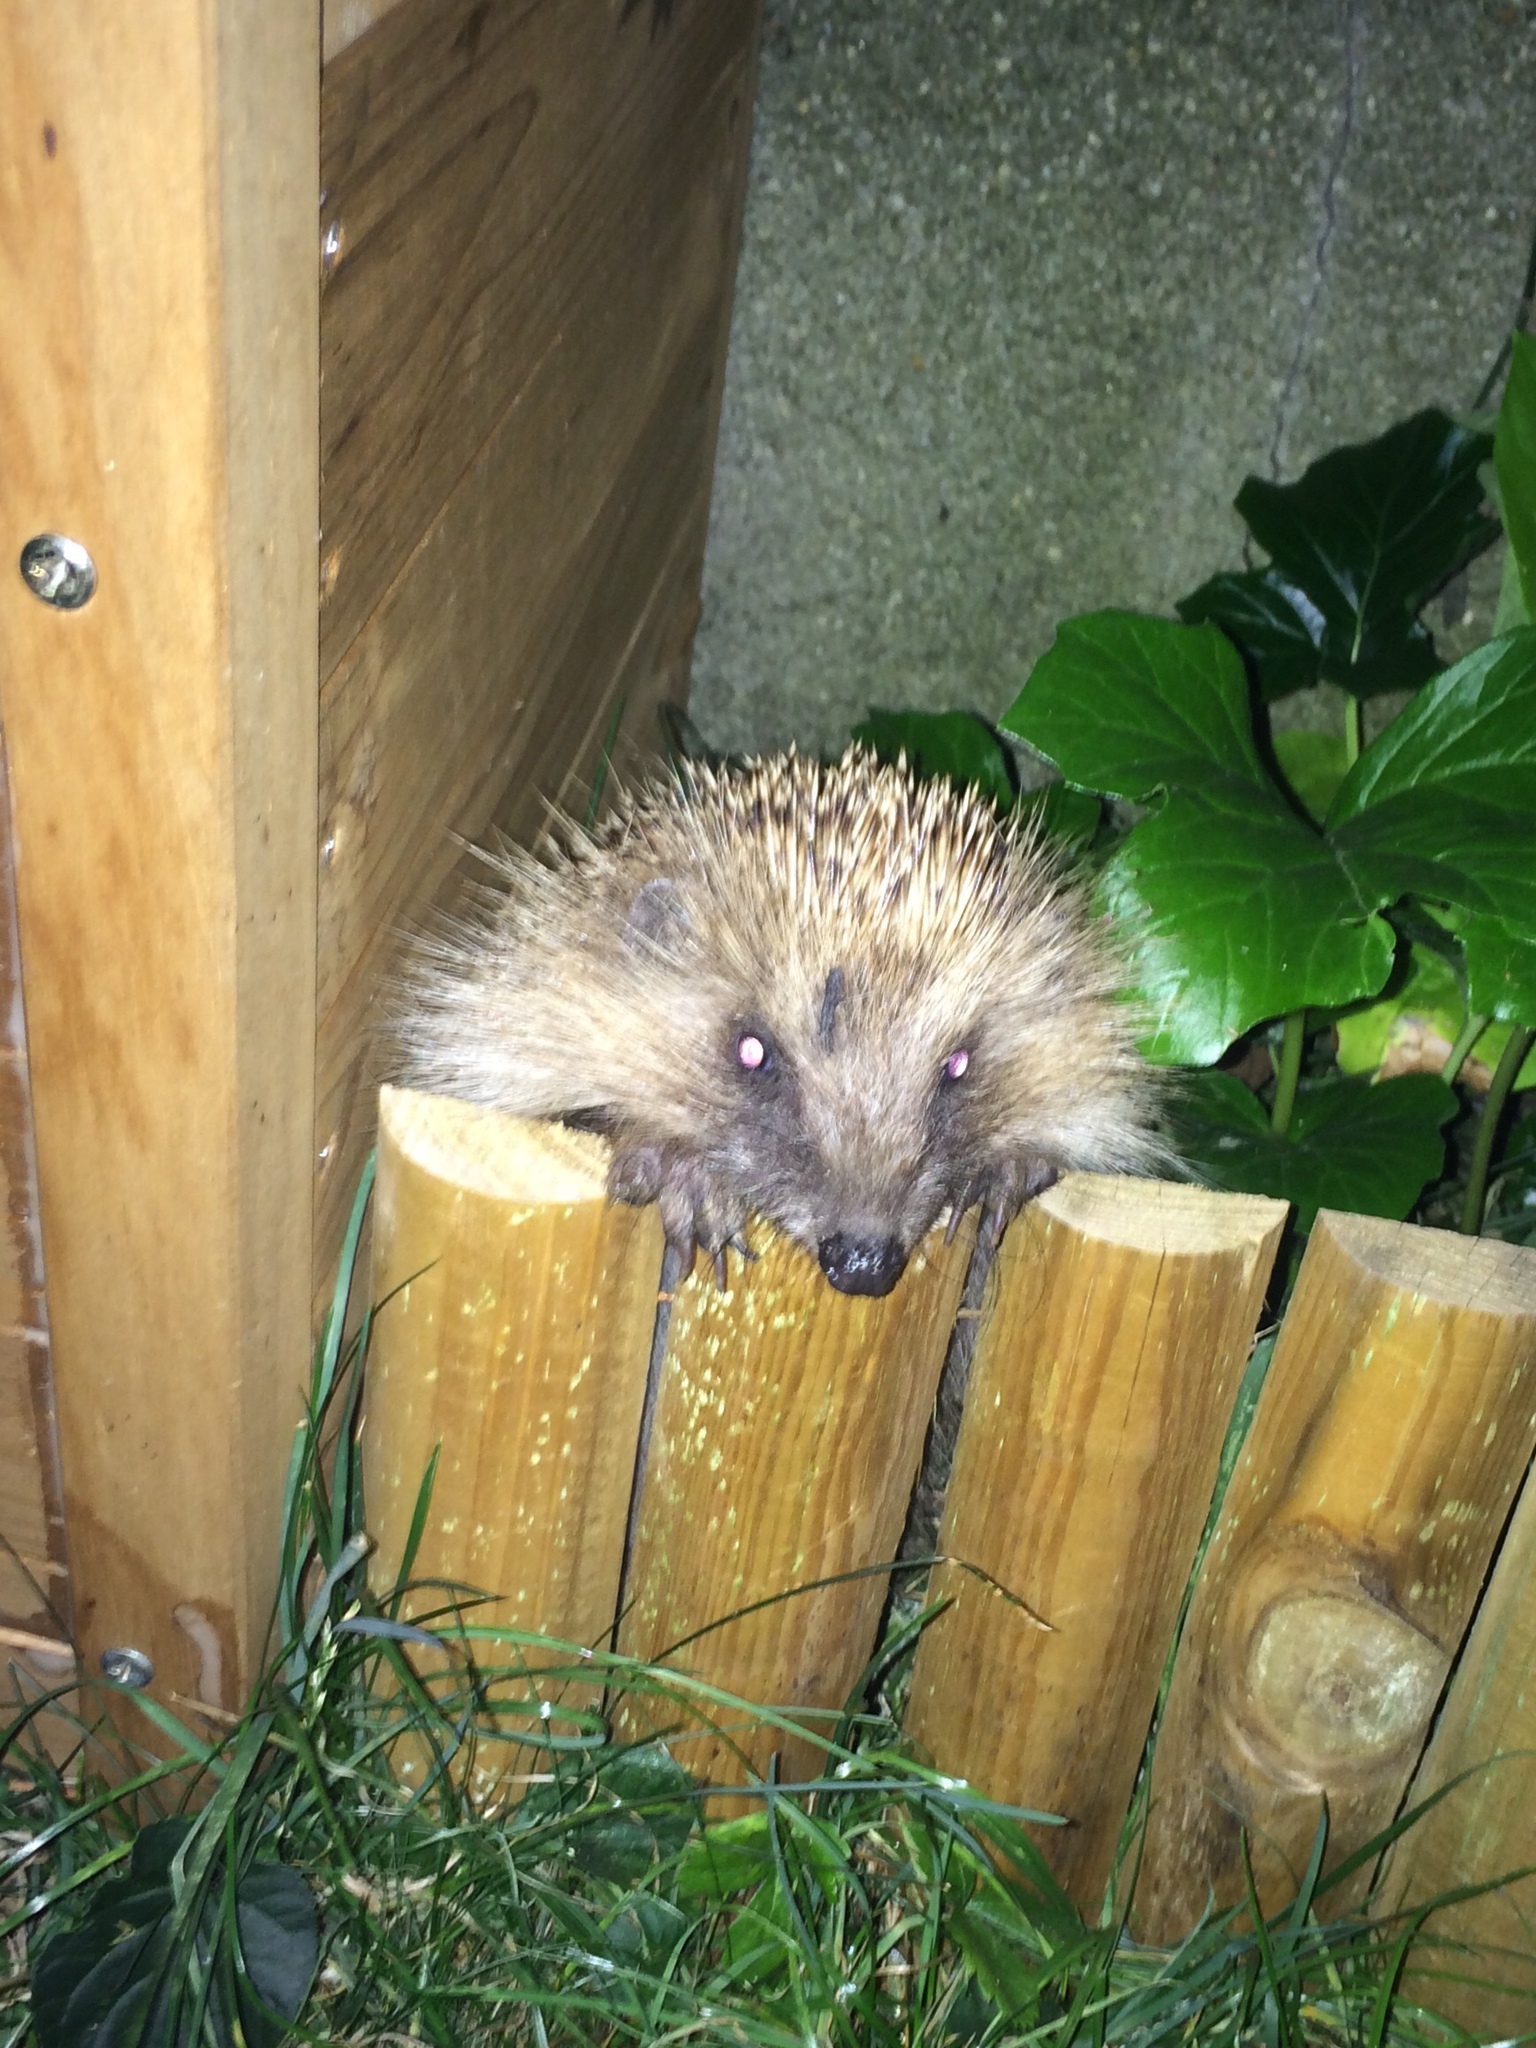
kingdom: Animalia
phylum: Chordata
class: Mammalia
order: Erinaceomorpha
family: Erinaceidae
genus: Erinaceus
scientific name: Erinaceus europaeus
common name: West european hedgehog
